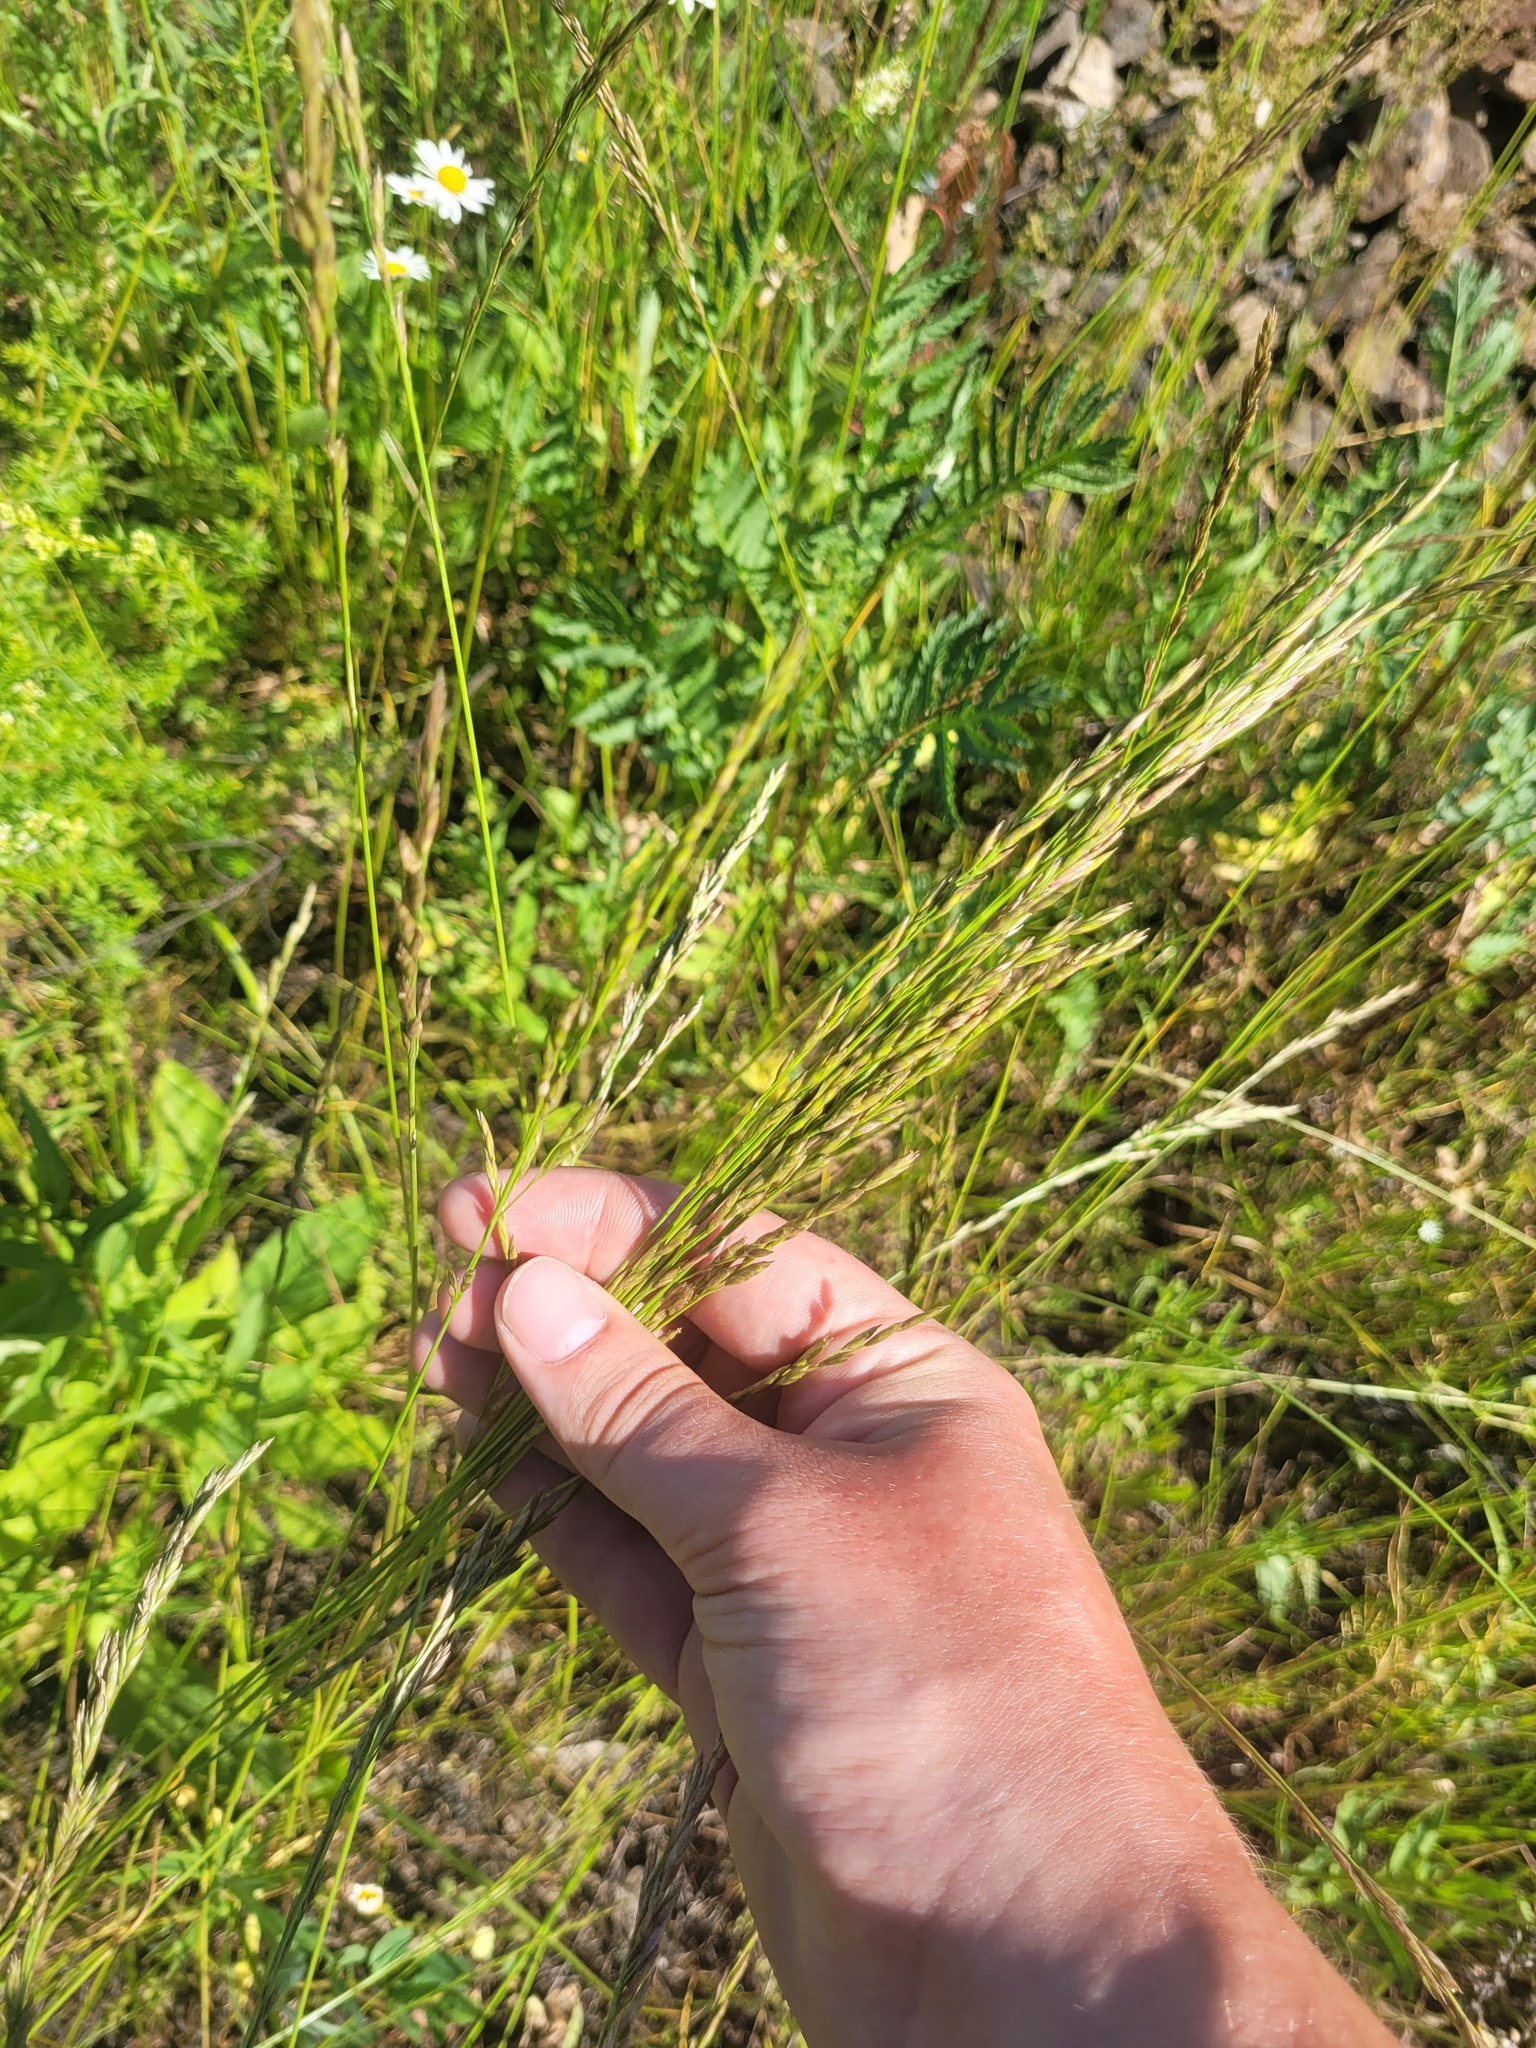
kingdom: Plantae
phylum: Tracheophyta
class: Liliopsida
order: Poales
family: Poaceae
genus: Lolium
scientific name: Lolium pratense
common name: Dover grass
